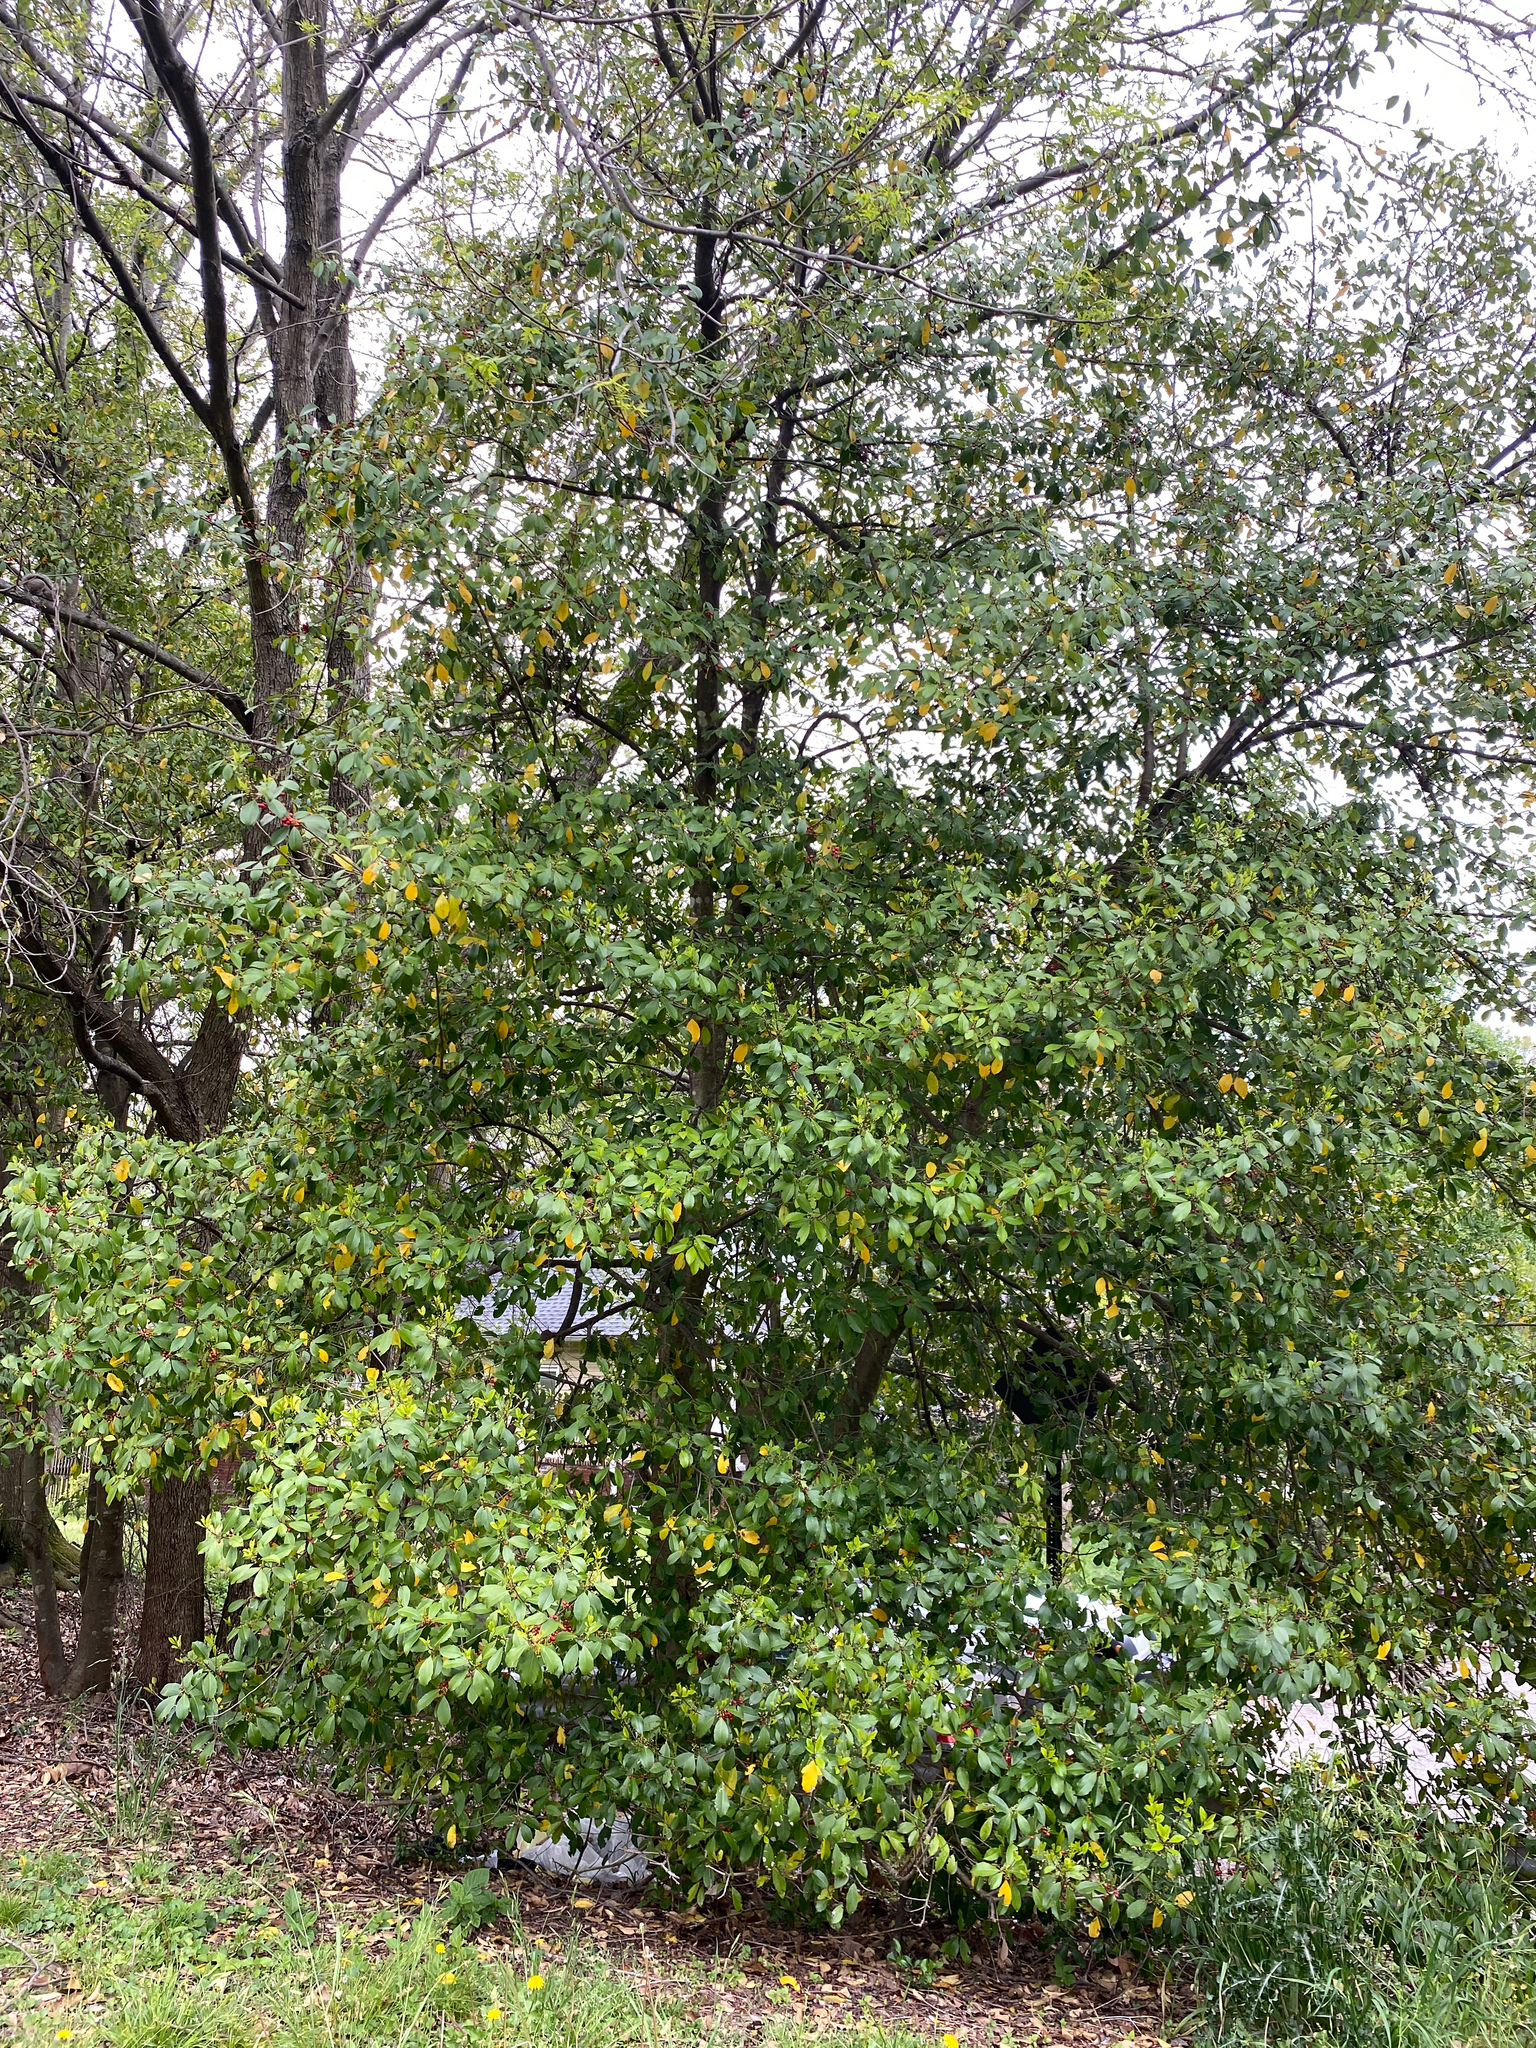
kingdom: Plantae
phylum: Tracheophyta
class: Magnoliopsida
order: Aquifoliales
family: Aquifoliaceae
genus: Ilex
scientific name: Ilex opaca
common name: American holly
